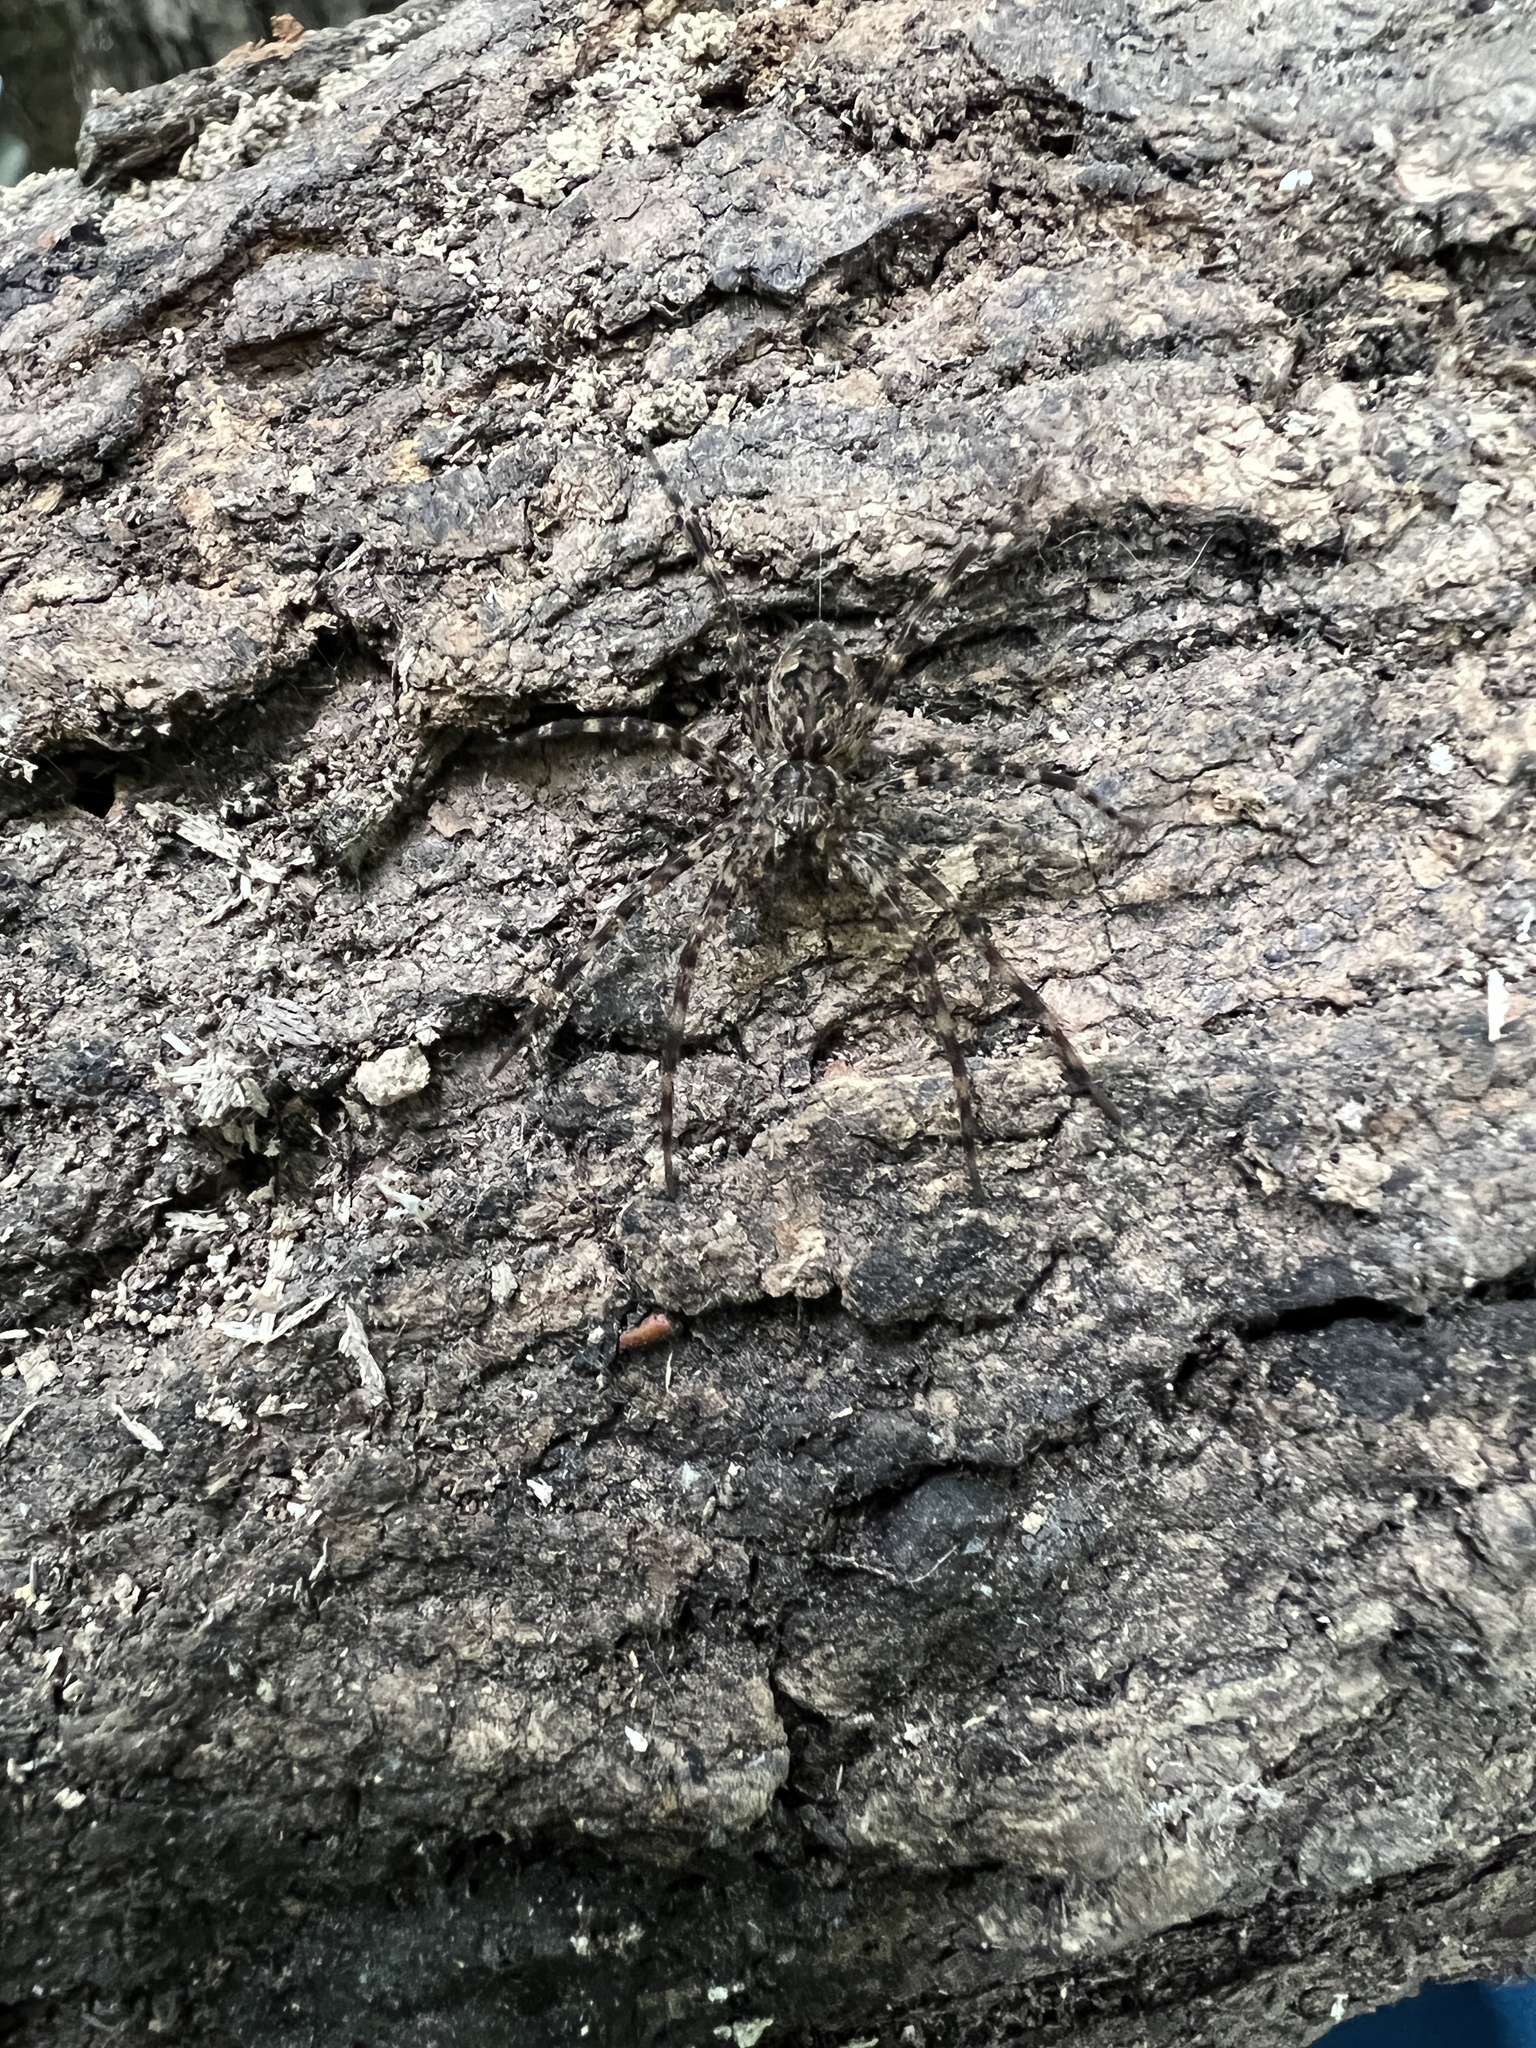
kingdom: Animalia
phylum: Arthropoda
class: Arachnida
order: Araneae
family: Pisauridae
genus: Dolomedes
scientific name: Dolomedes tenebrosus
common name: Dark fishing spider
